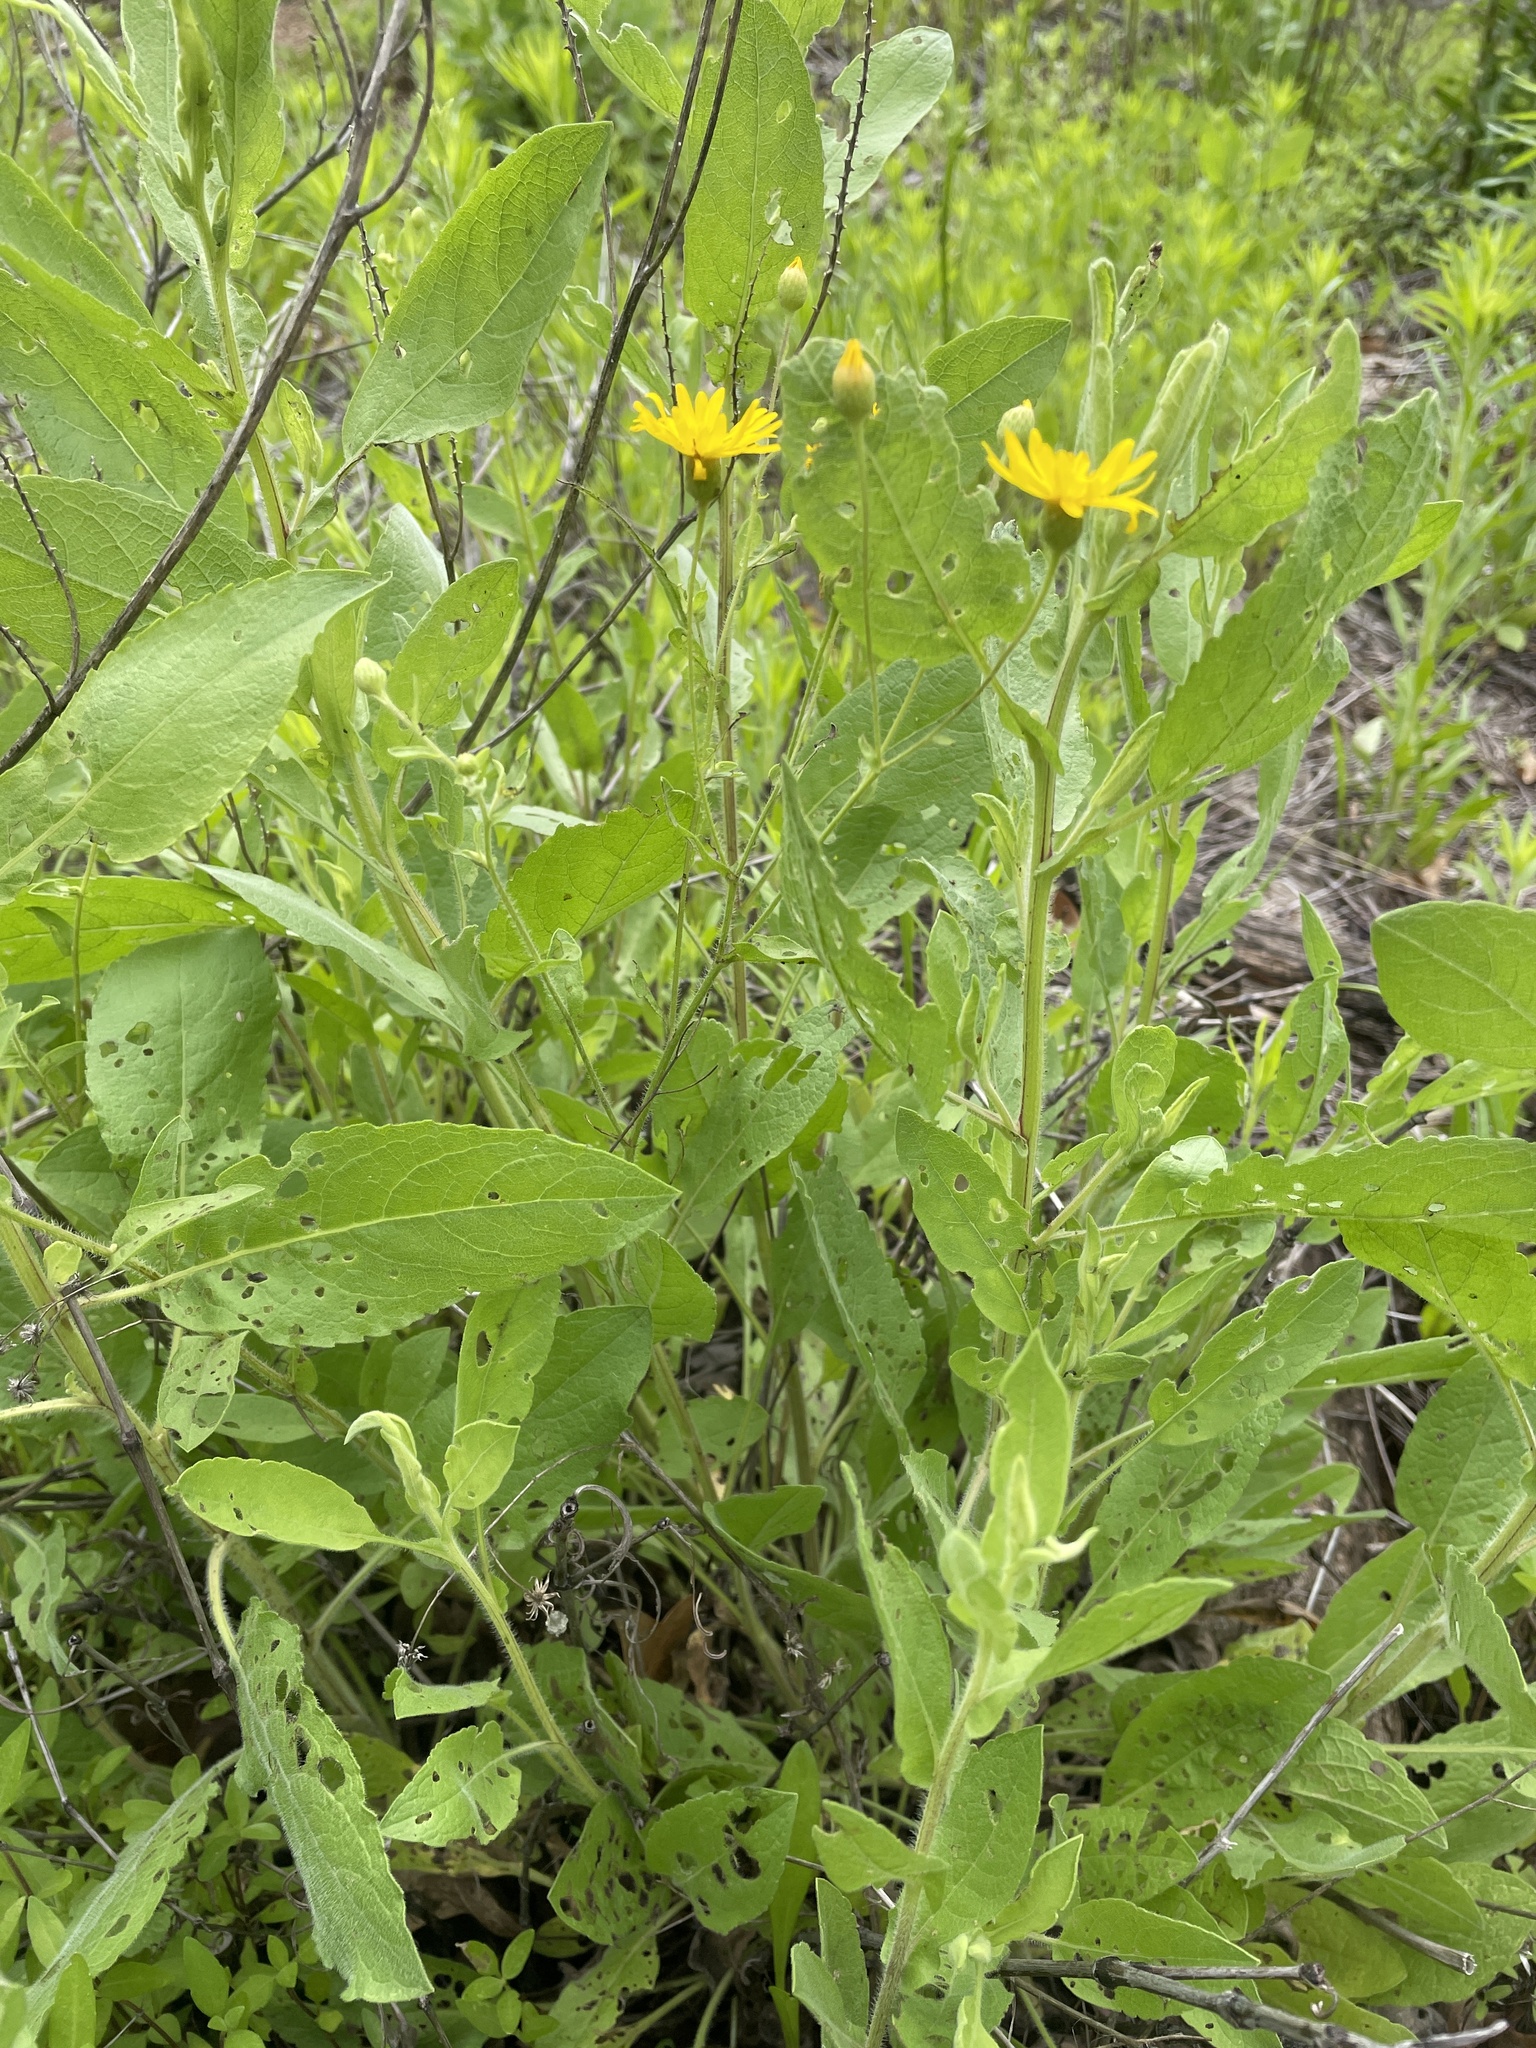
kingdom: Plantae
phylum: Tracheophyta
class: Magnoliopsida
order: Asterales
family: Asteraceae
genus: Heterotheca
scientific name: Heterotheca subaxillaris
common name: Camphorweed
